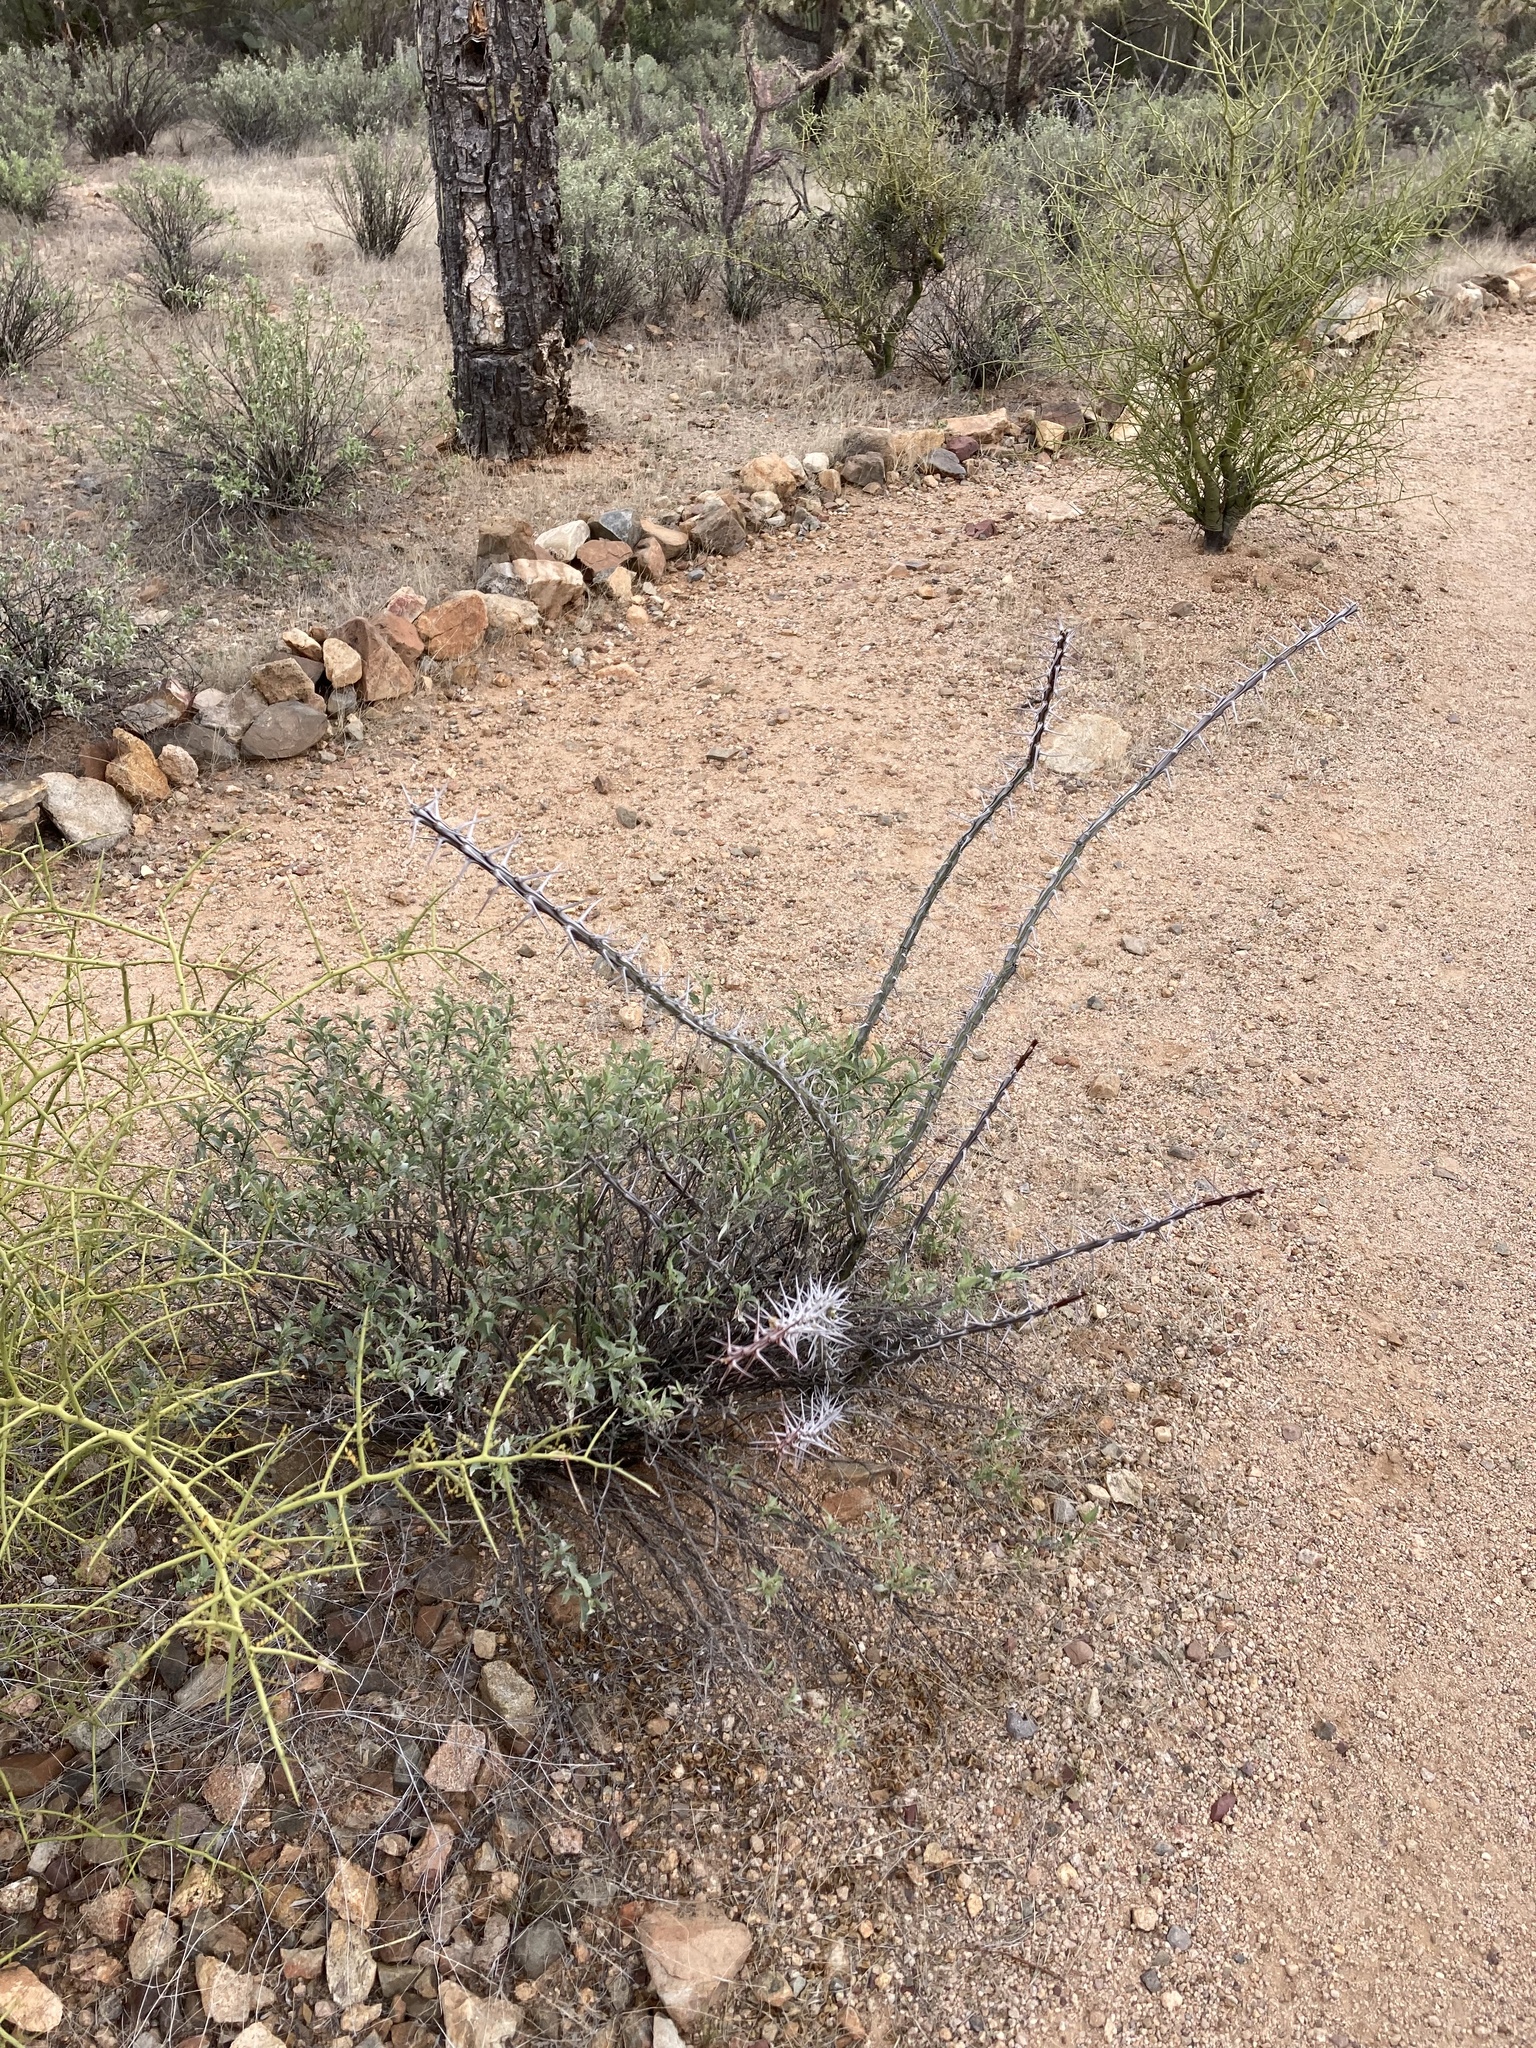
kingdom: Plantae
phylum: Tracheophyta
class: Magnoliopsida
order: Ericales
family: Fouquieriaceae
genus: Fouquieria
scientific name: Fouquieria splendens
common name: Vine-cactus
